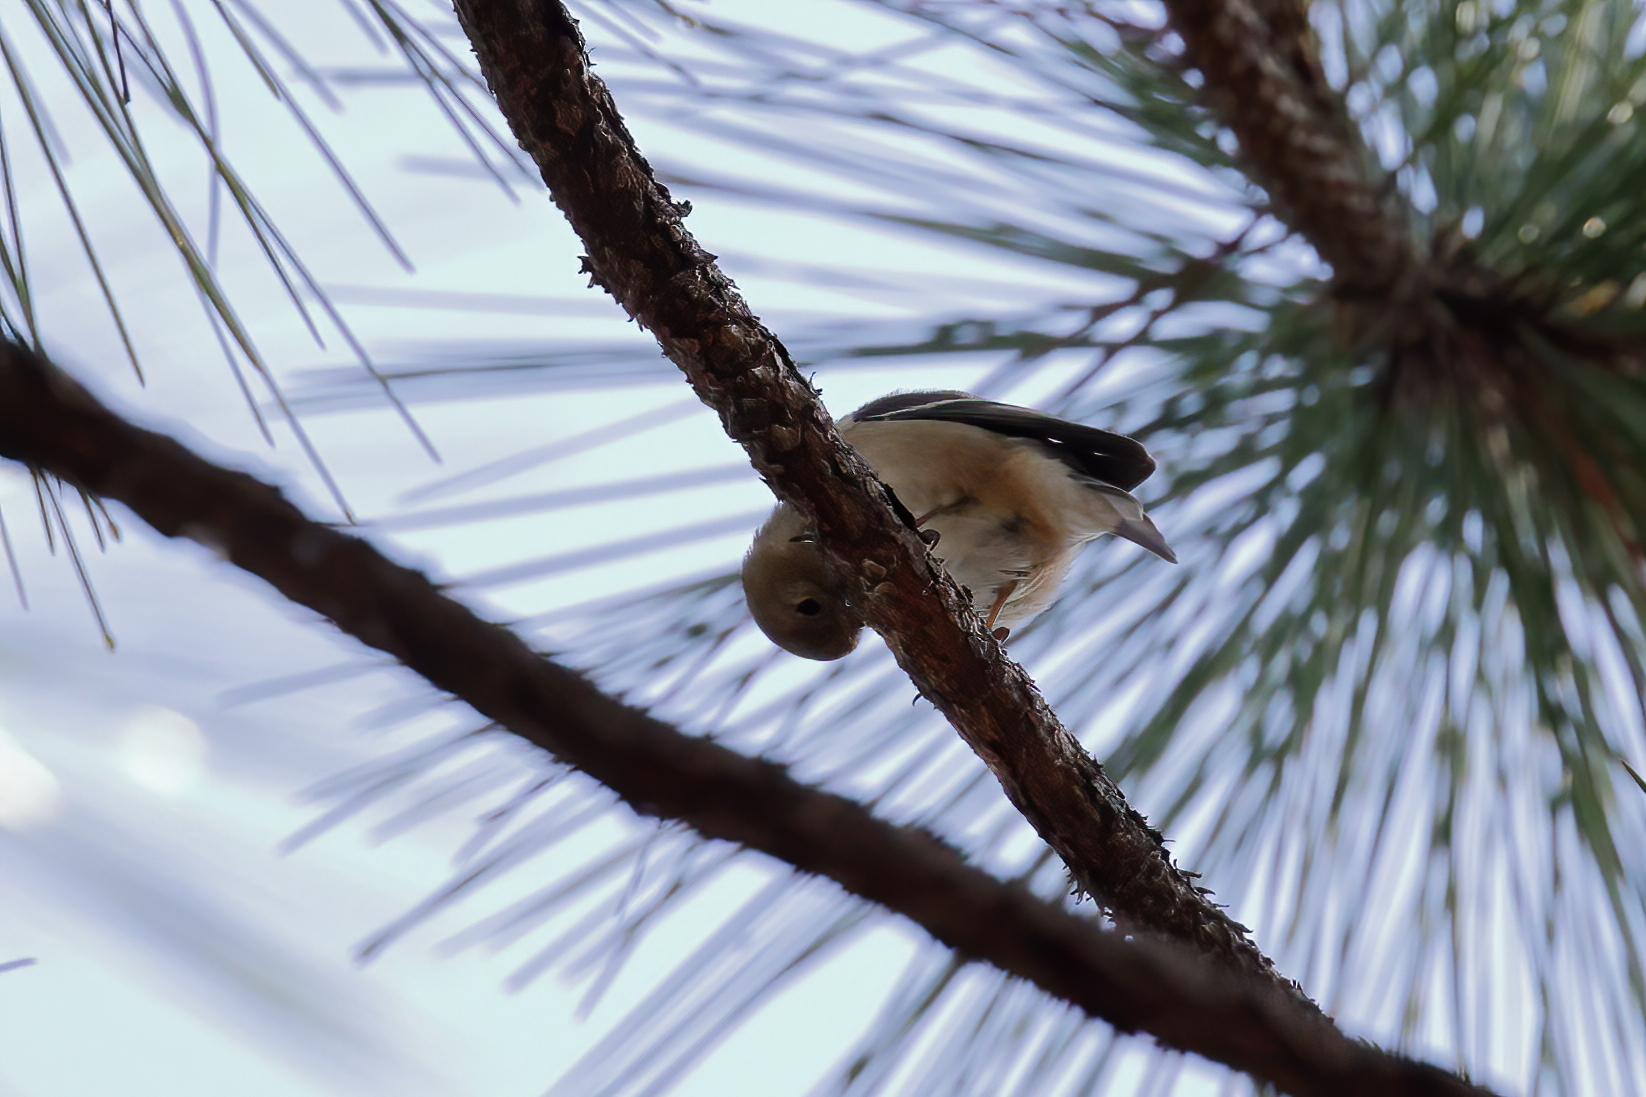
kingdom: Animalia
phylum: Chordata
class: Aves
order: Passeriformes
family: Fringillidae
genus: Spinus
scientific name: Spinus tristis
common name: American goldfinch
